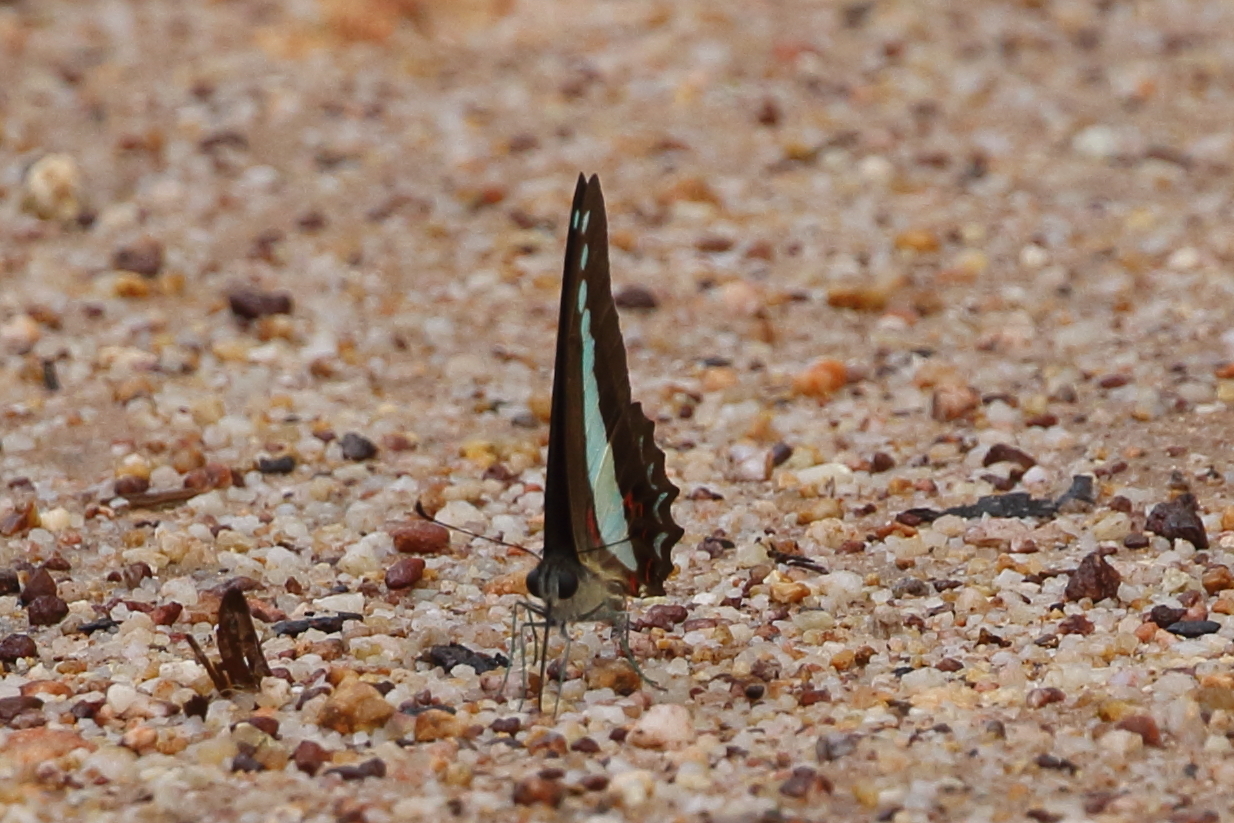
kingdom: Animalia
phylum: Arthropoda
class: Insecta
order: Lepidoptera
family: Papilionidae
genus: Graphium
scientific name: Graphium
